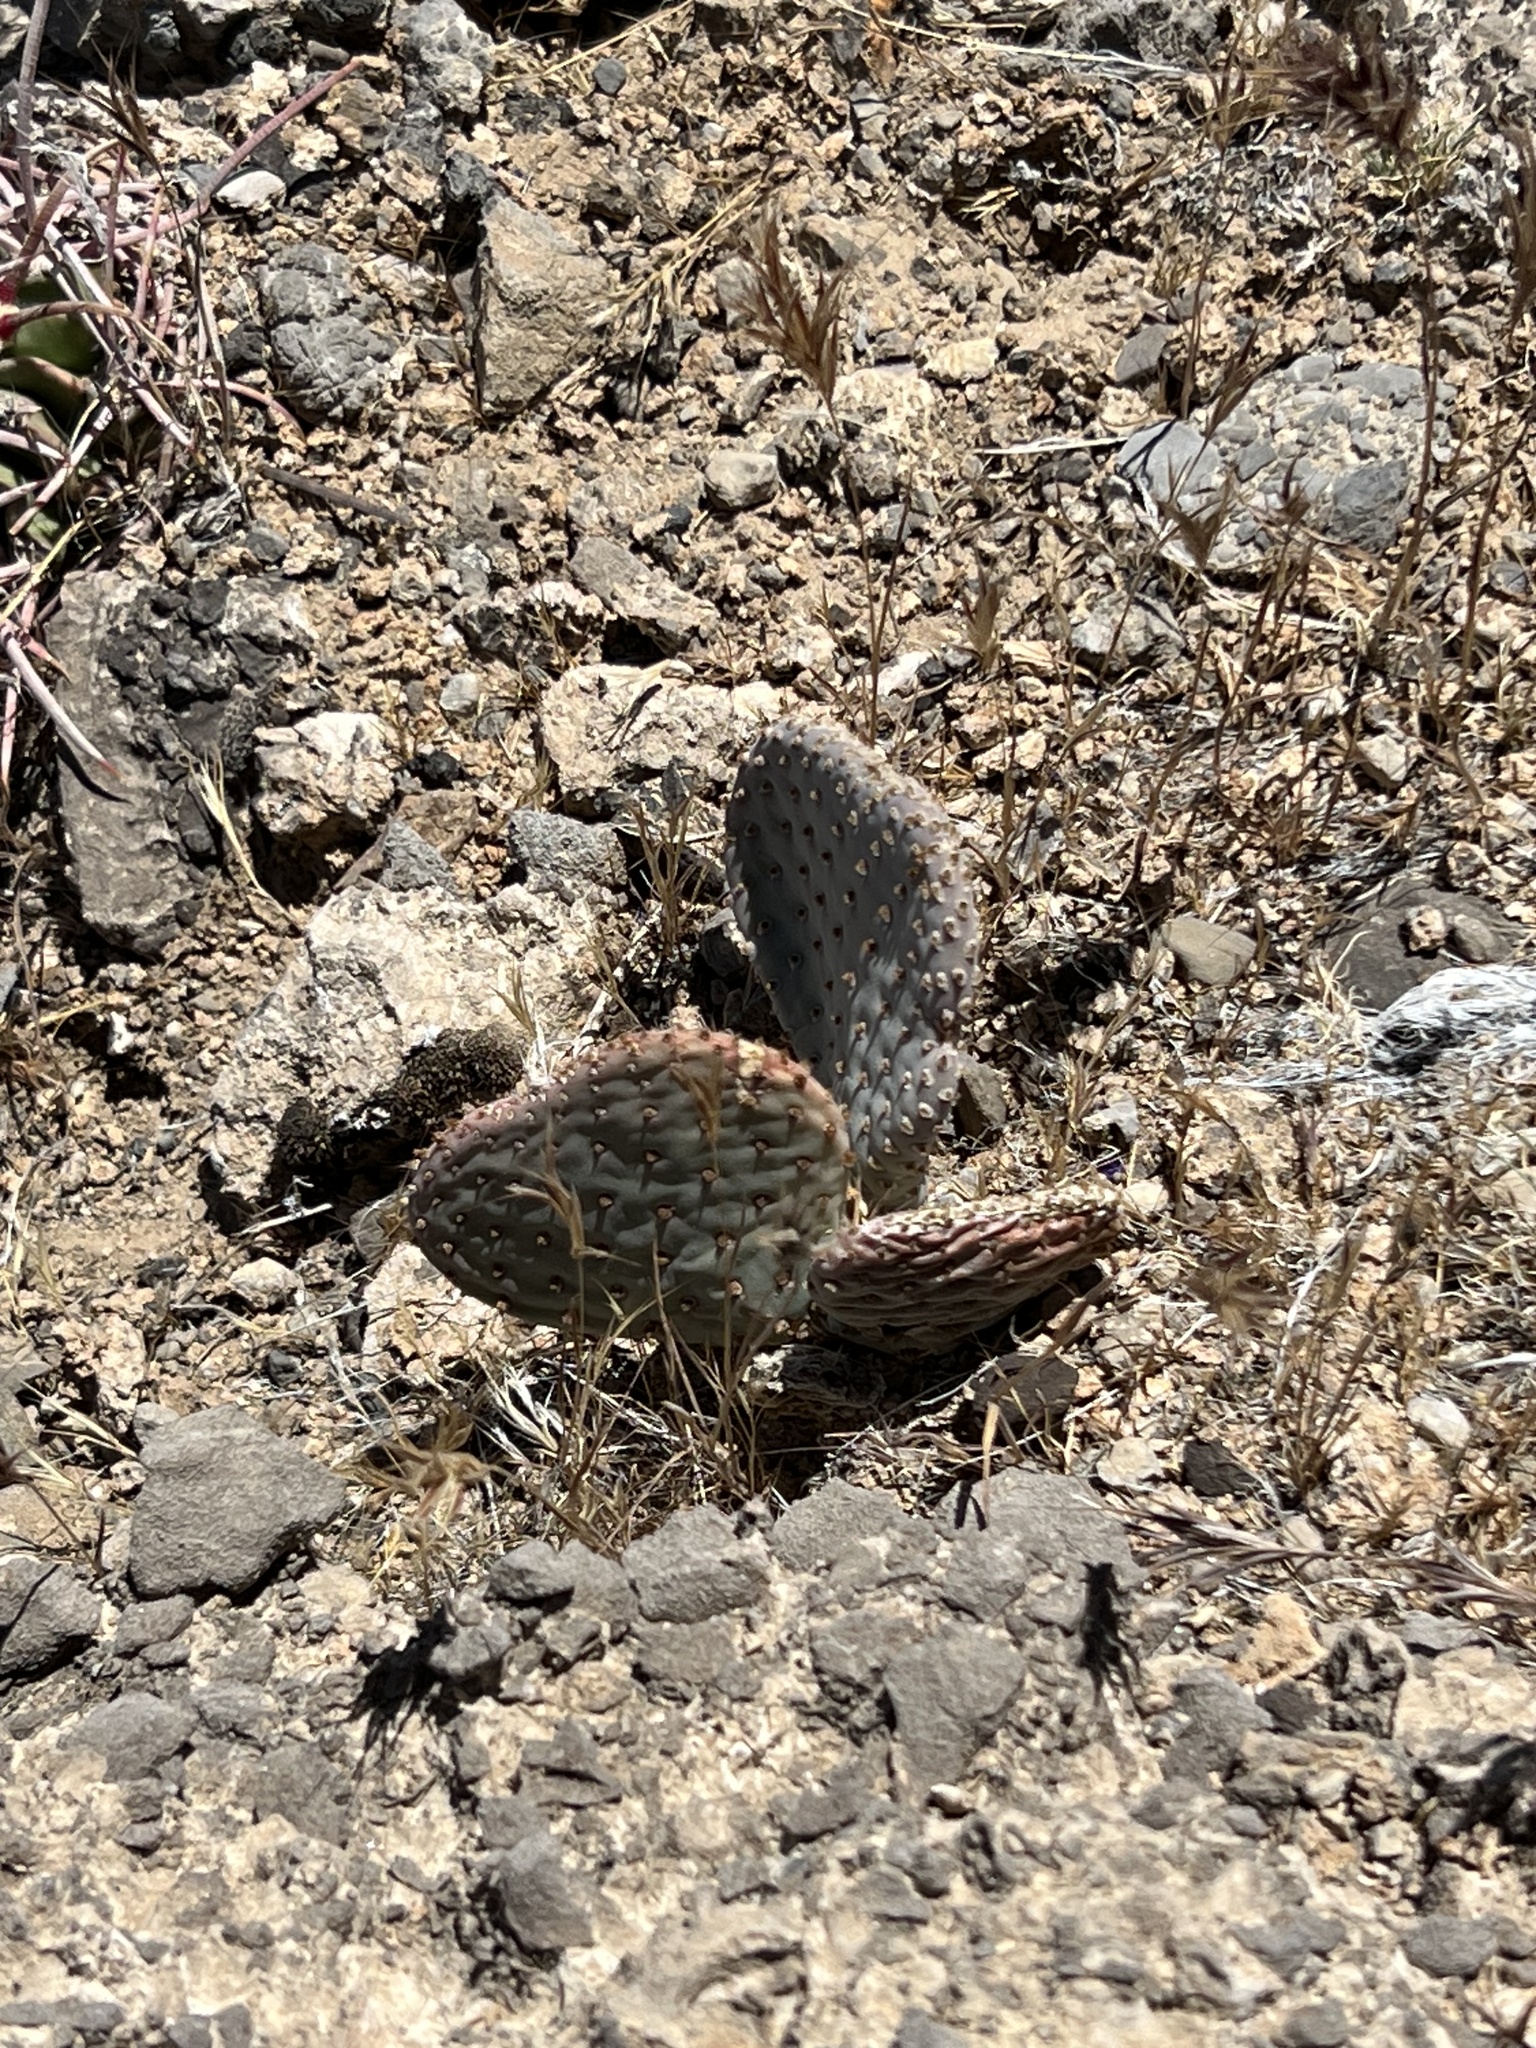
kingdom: Plantae
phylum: Tracheophyta
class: Magnoliopsida
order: Caryophyllales
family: Cactaceae
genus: Opuntia
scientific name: Opuntia basilaris
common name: Beavertail prickly-pear
